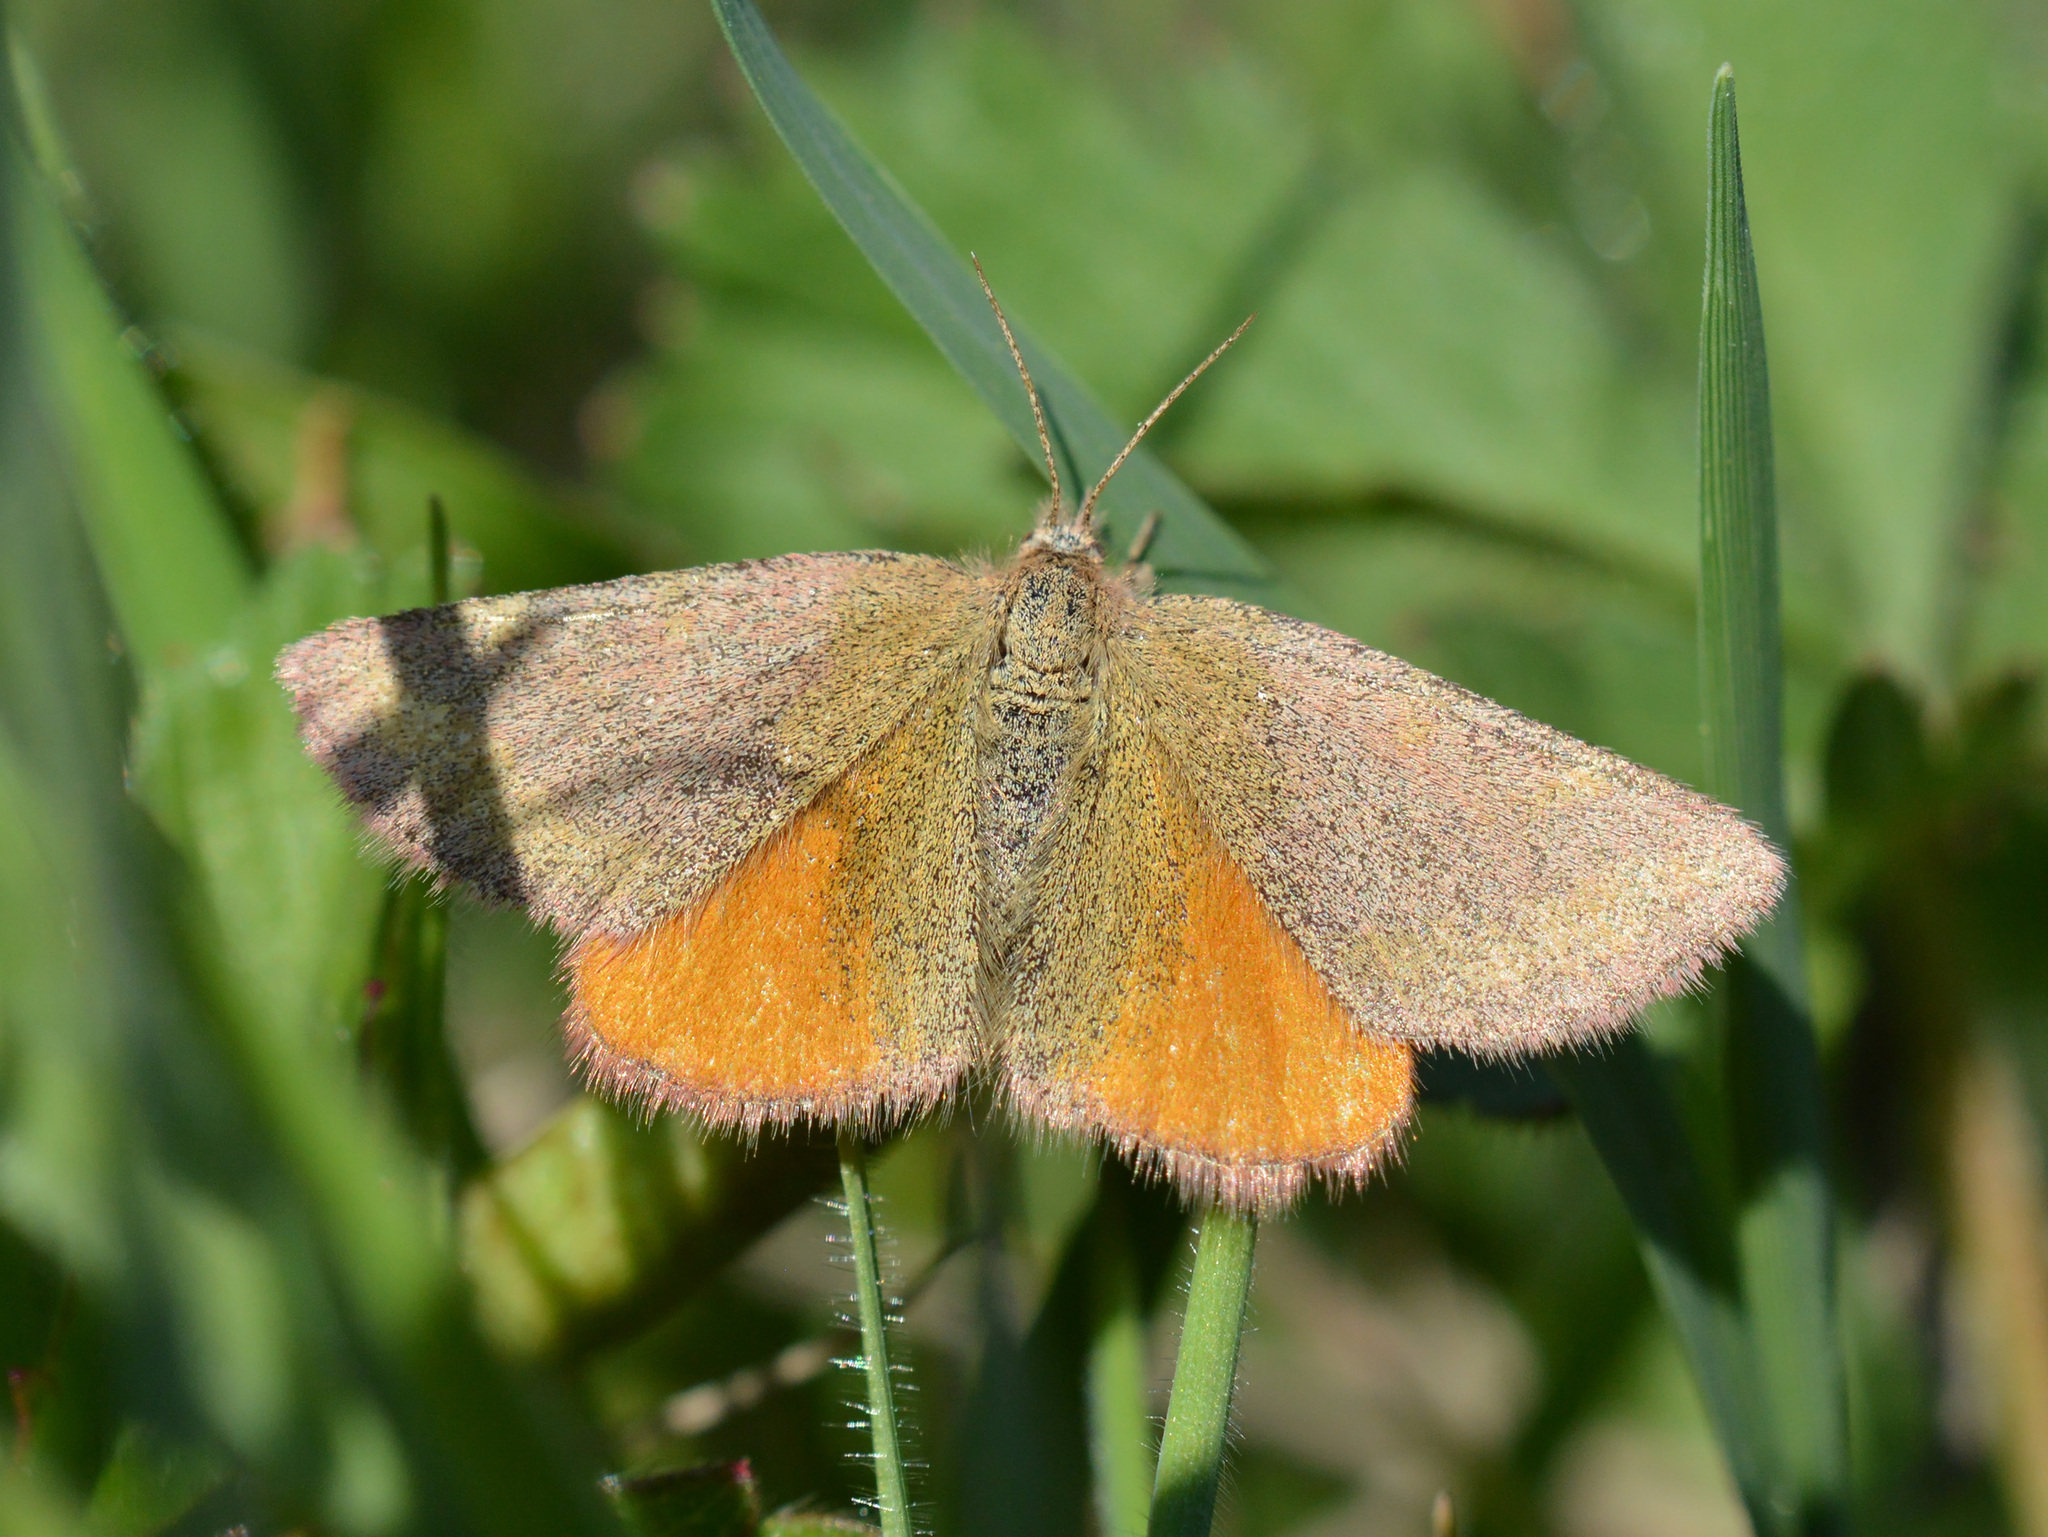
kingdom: Animalia
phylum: Arthropoda
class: Insecta
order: Lepidoptera
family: Geometridae
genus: Lythria
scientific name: Lythria purpuraria
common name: Purple-barred yellow
